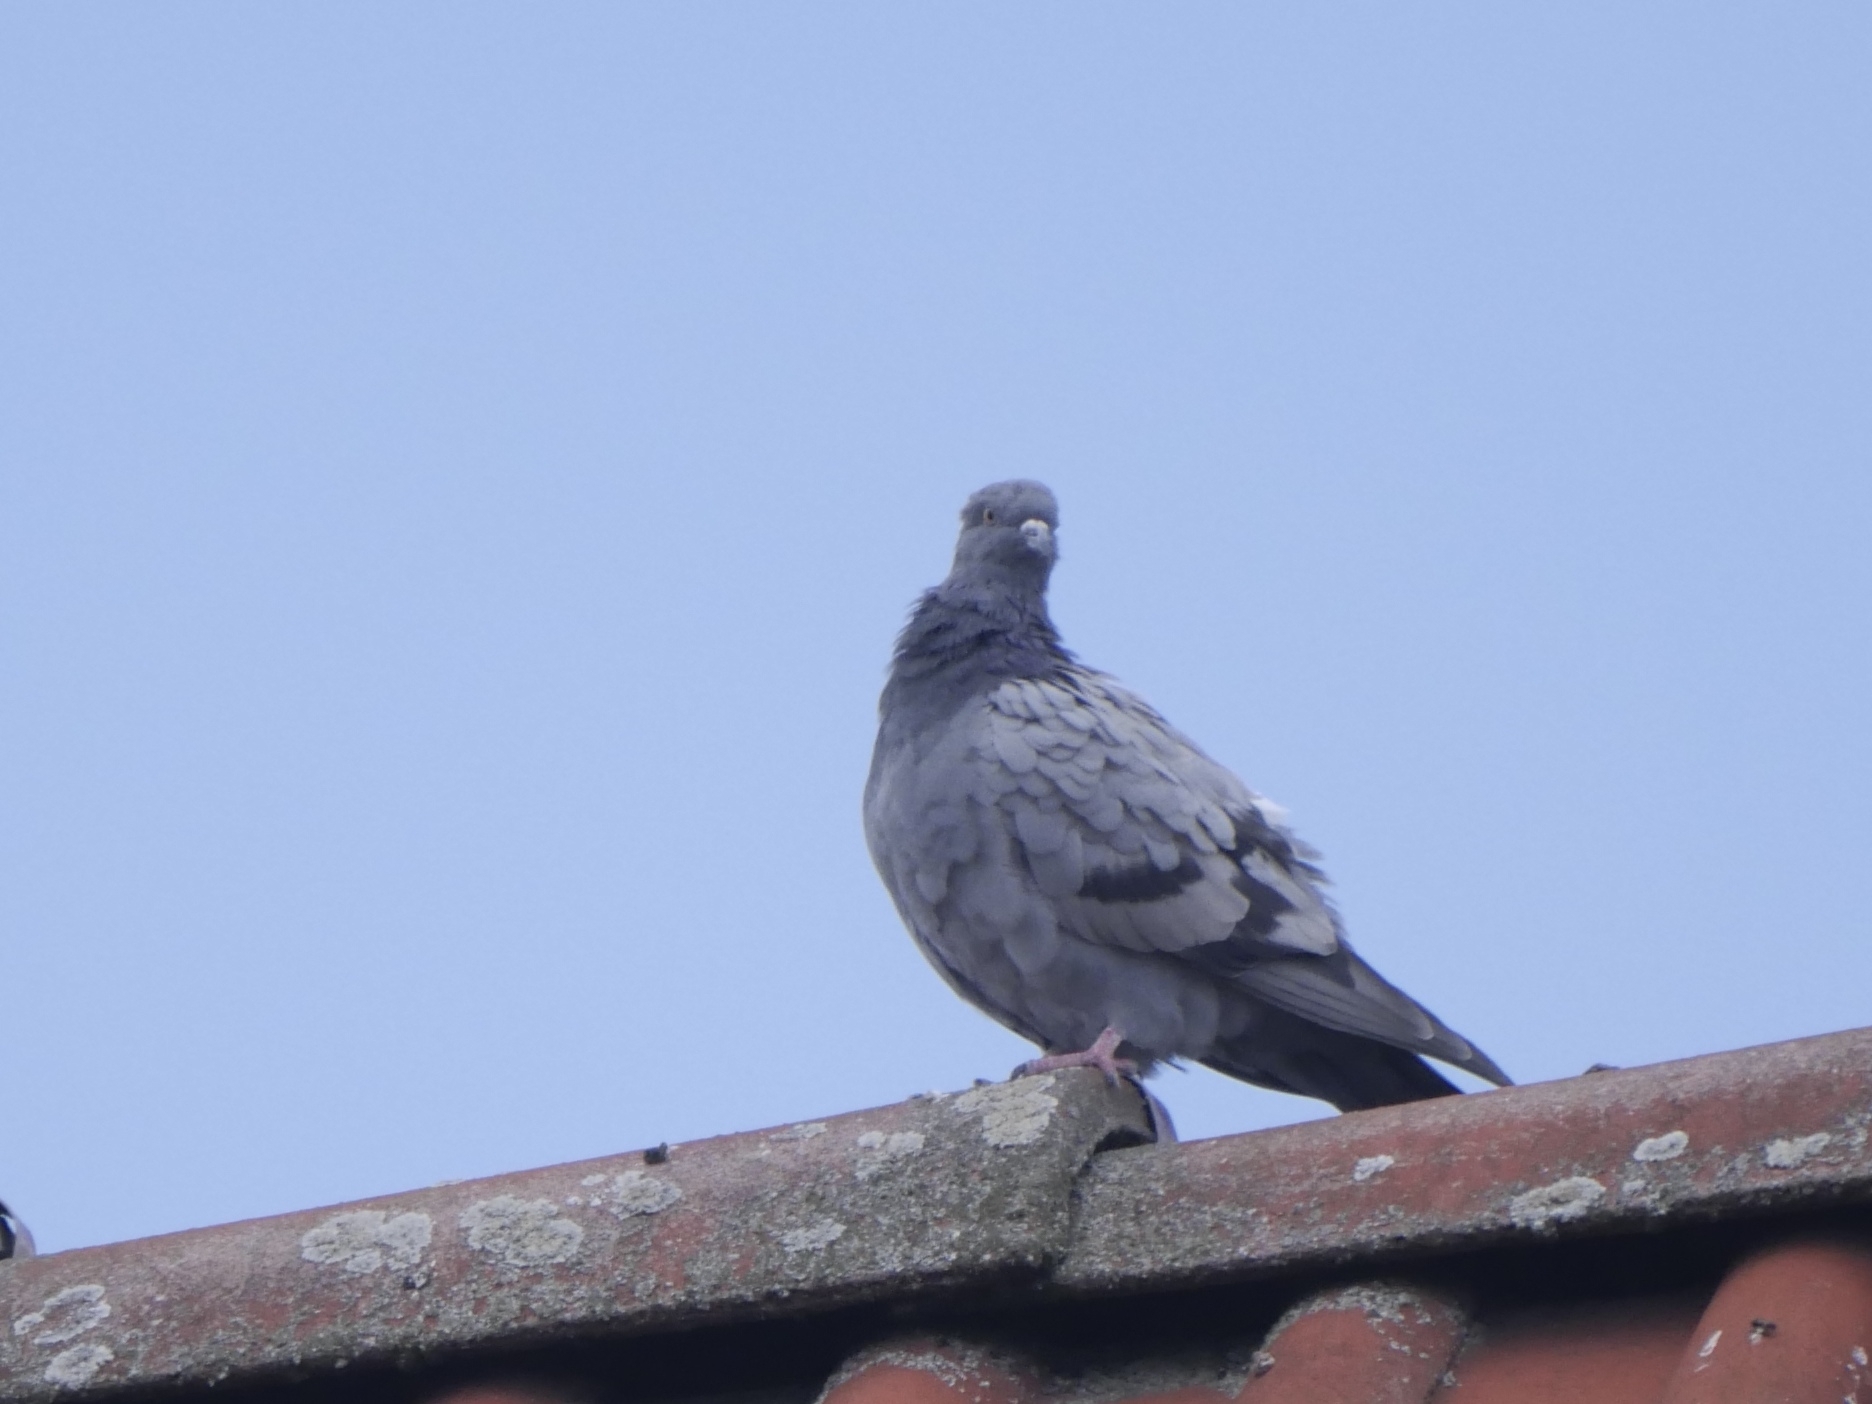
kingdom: Animalia
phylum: Chordata
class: Aves
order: Columbiformes
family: Columbidae
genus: Columba
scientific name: Columba livia
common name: Rock pigeon
